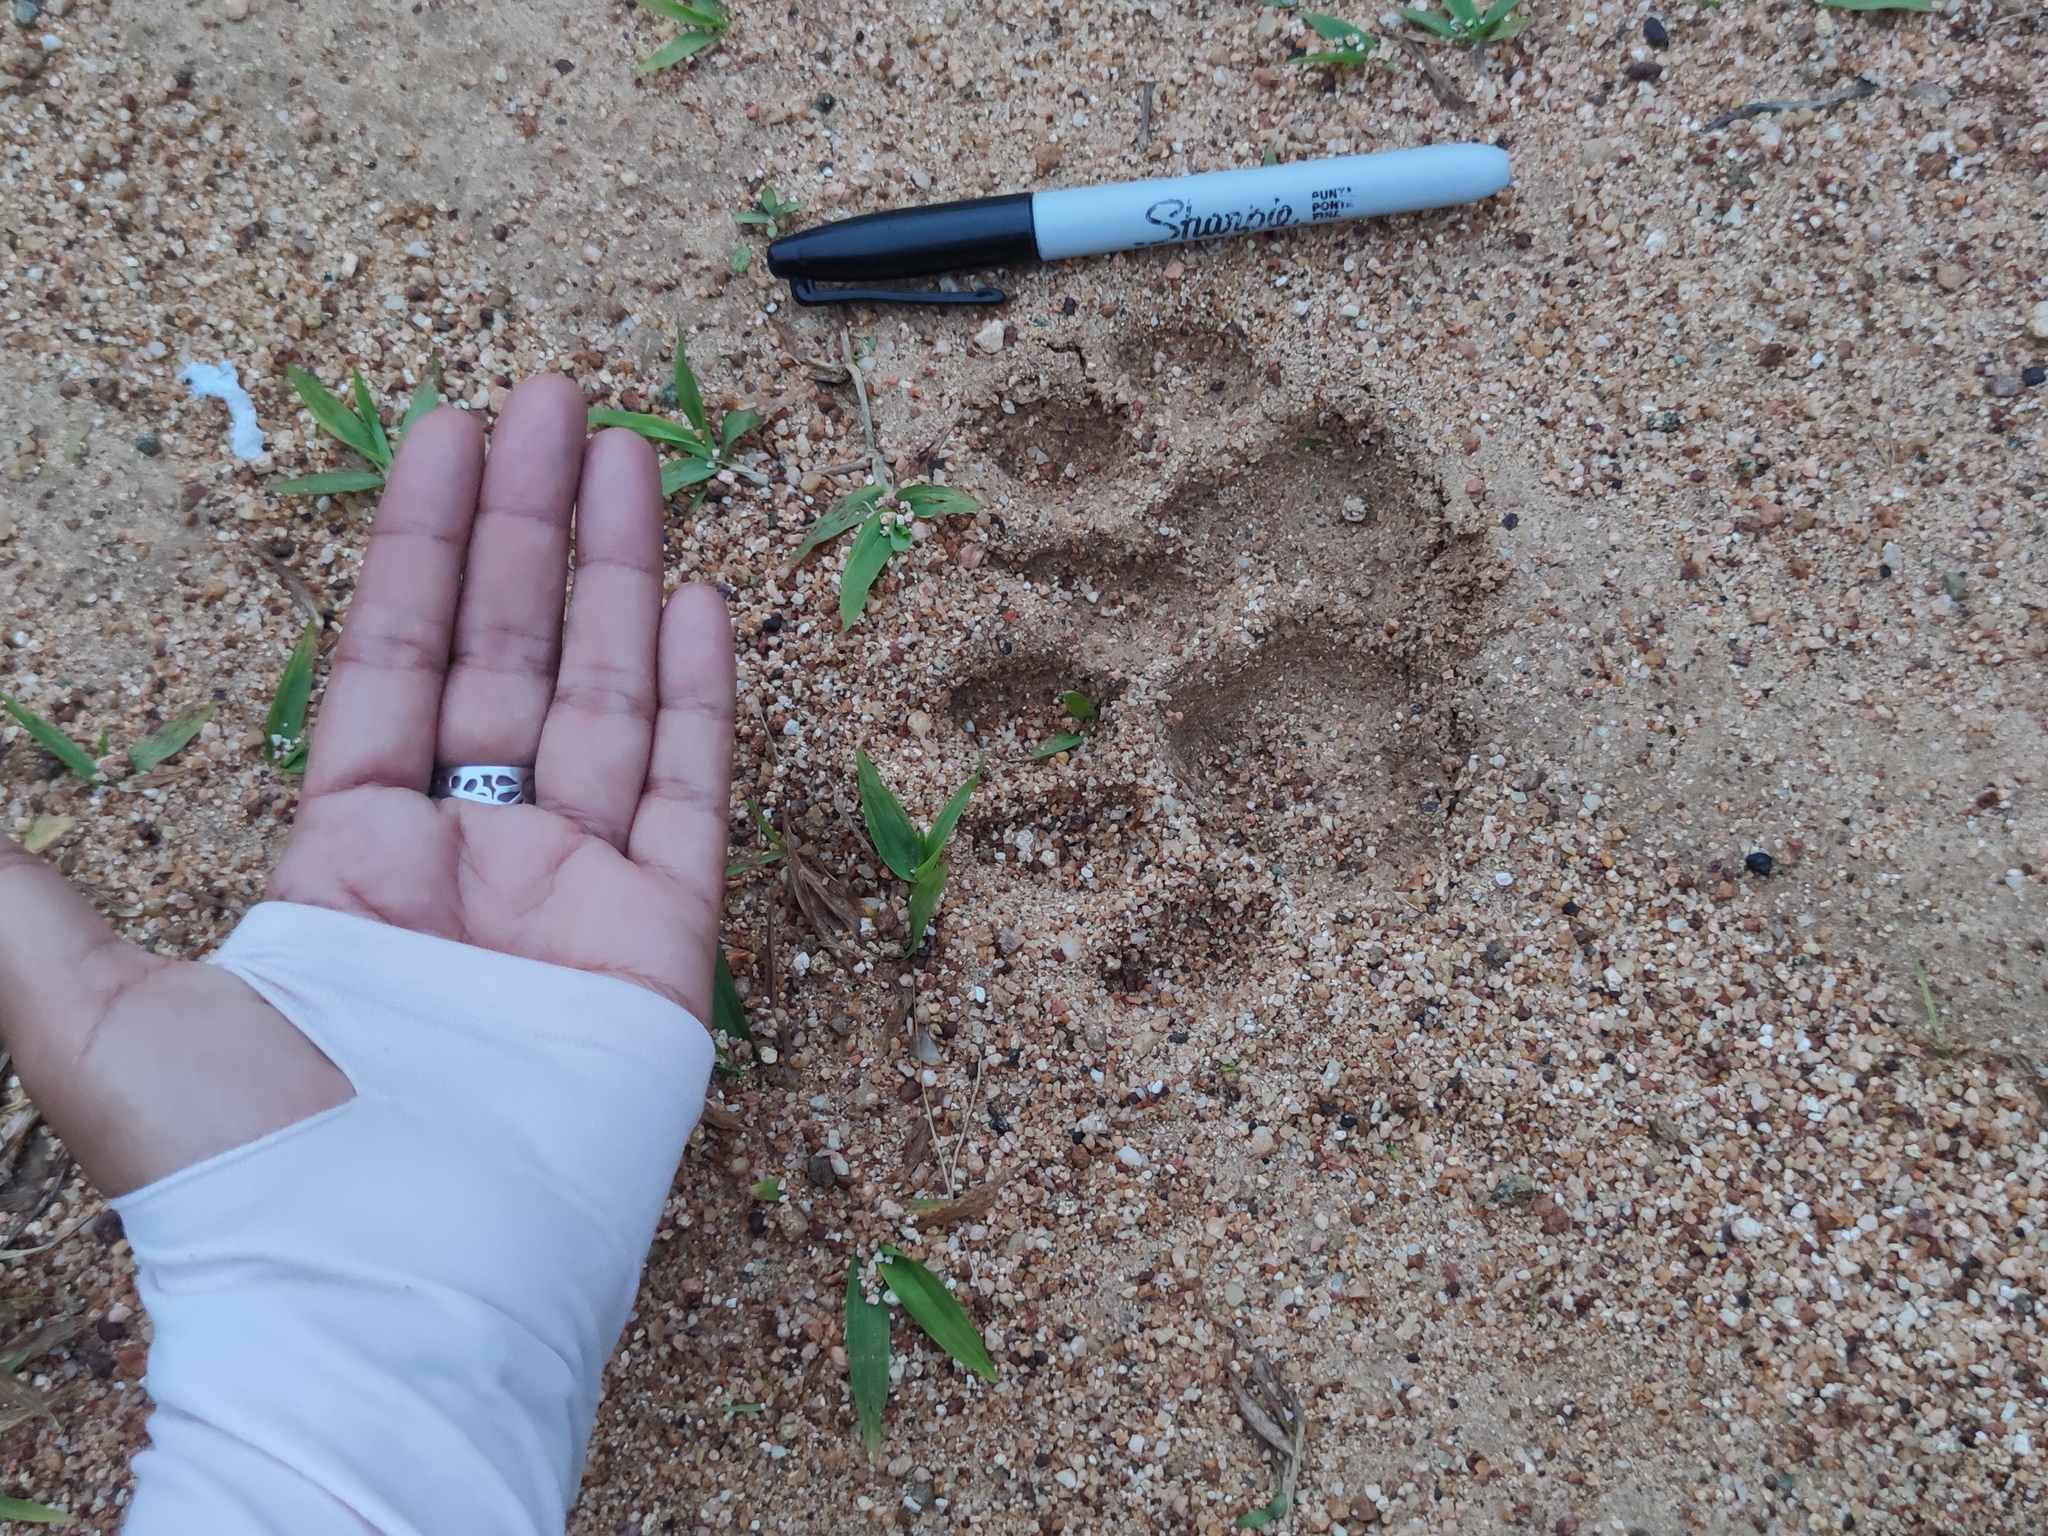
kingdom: Animalia
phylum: Chordata
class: Mammalia
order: Carnivora
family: Felidae
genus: Puma
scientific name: Puma concolor
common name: Puma
